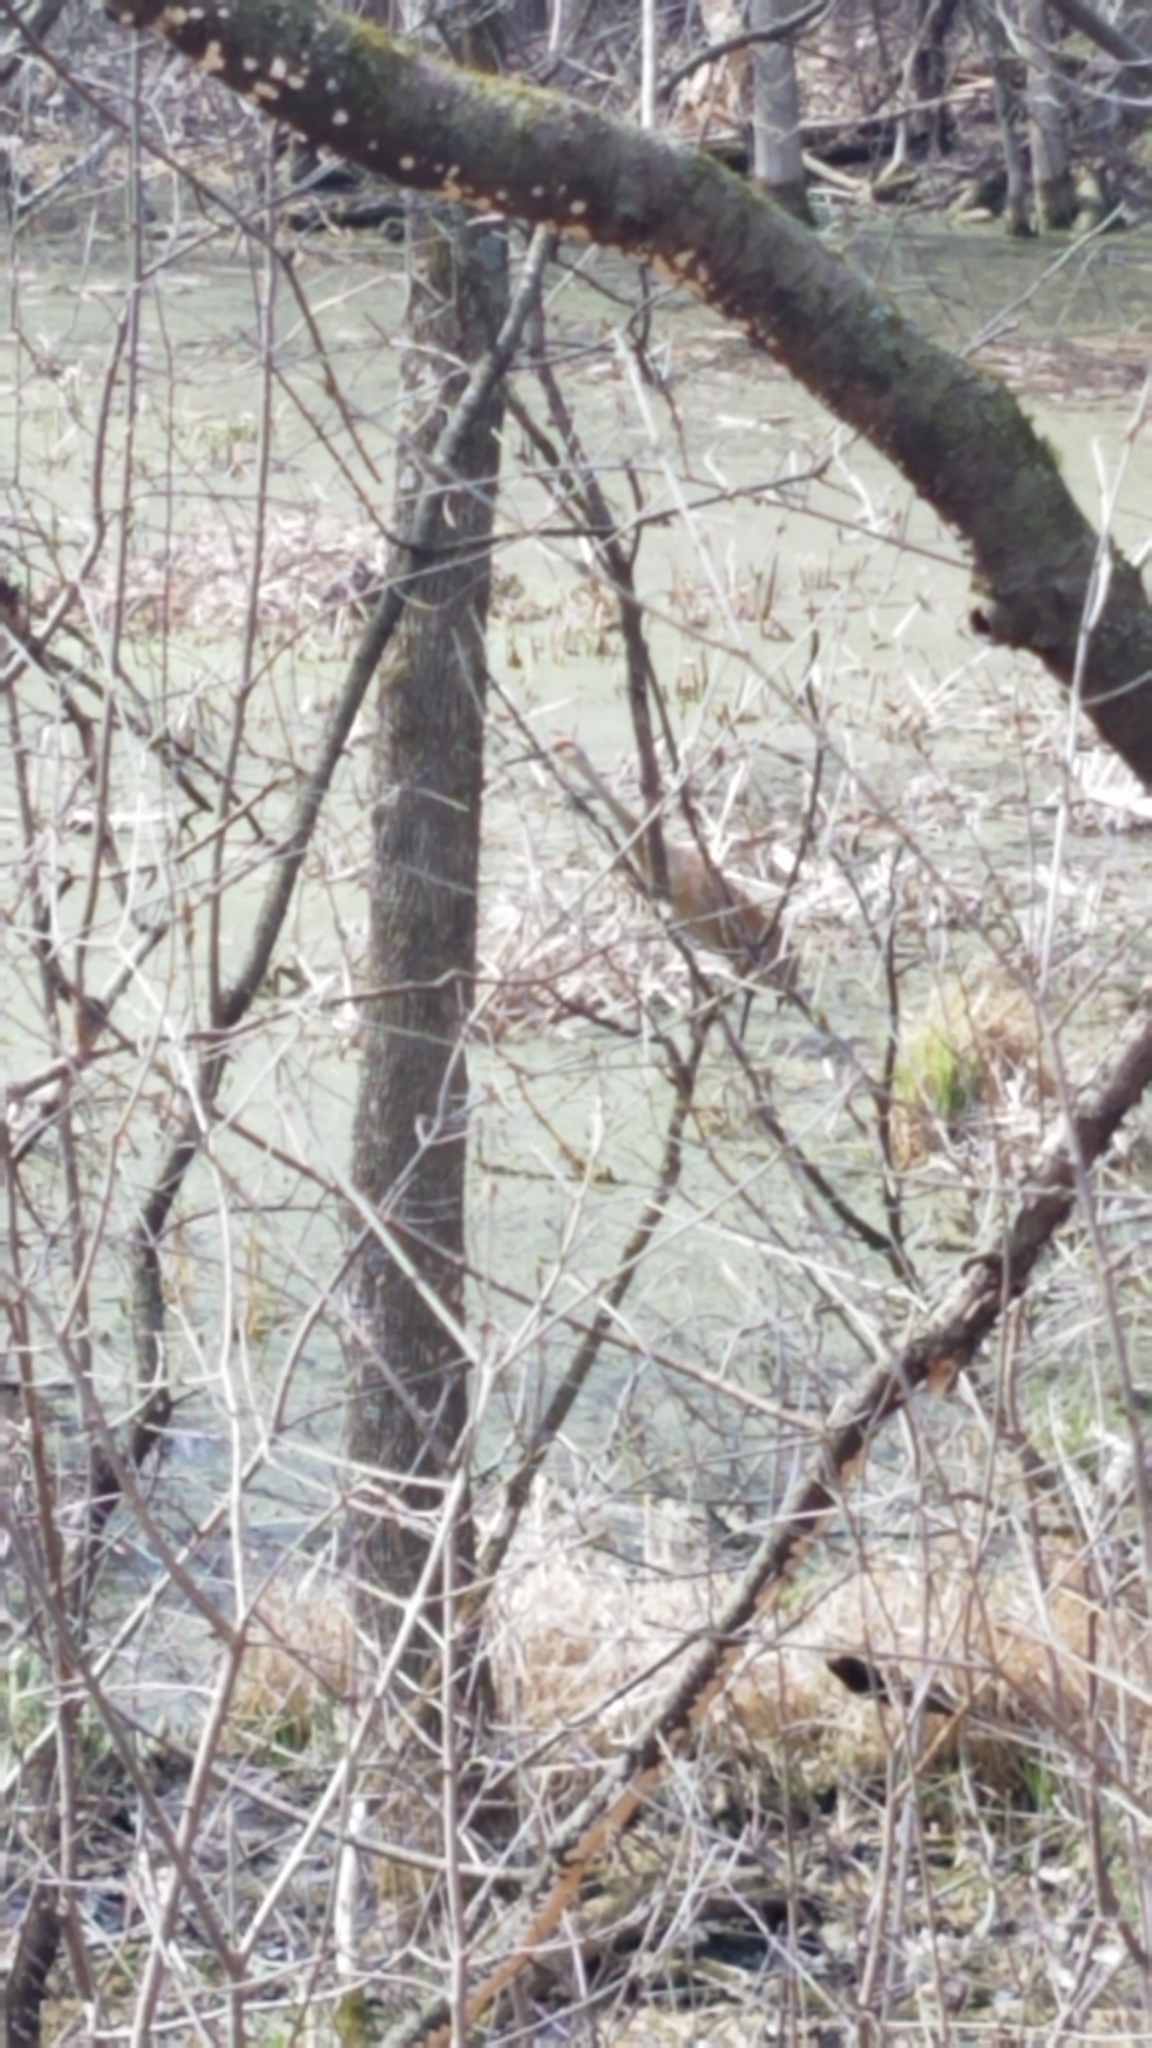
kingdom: Animalia
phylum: Chordata
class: Aves
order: Gruiformes
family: Gruidae
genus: Grus
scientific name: Grus canadensis
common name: Sandhill crane
